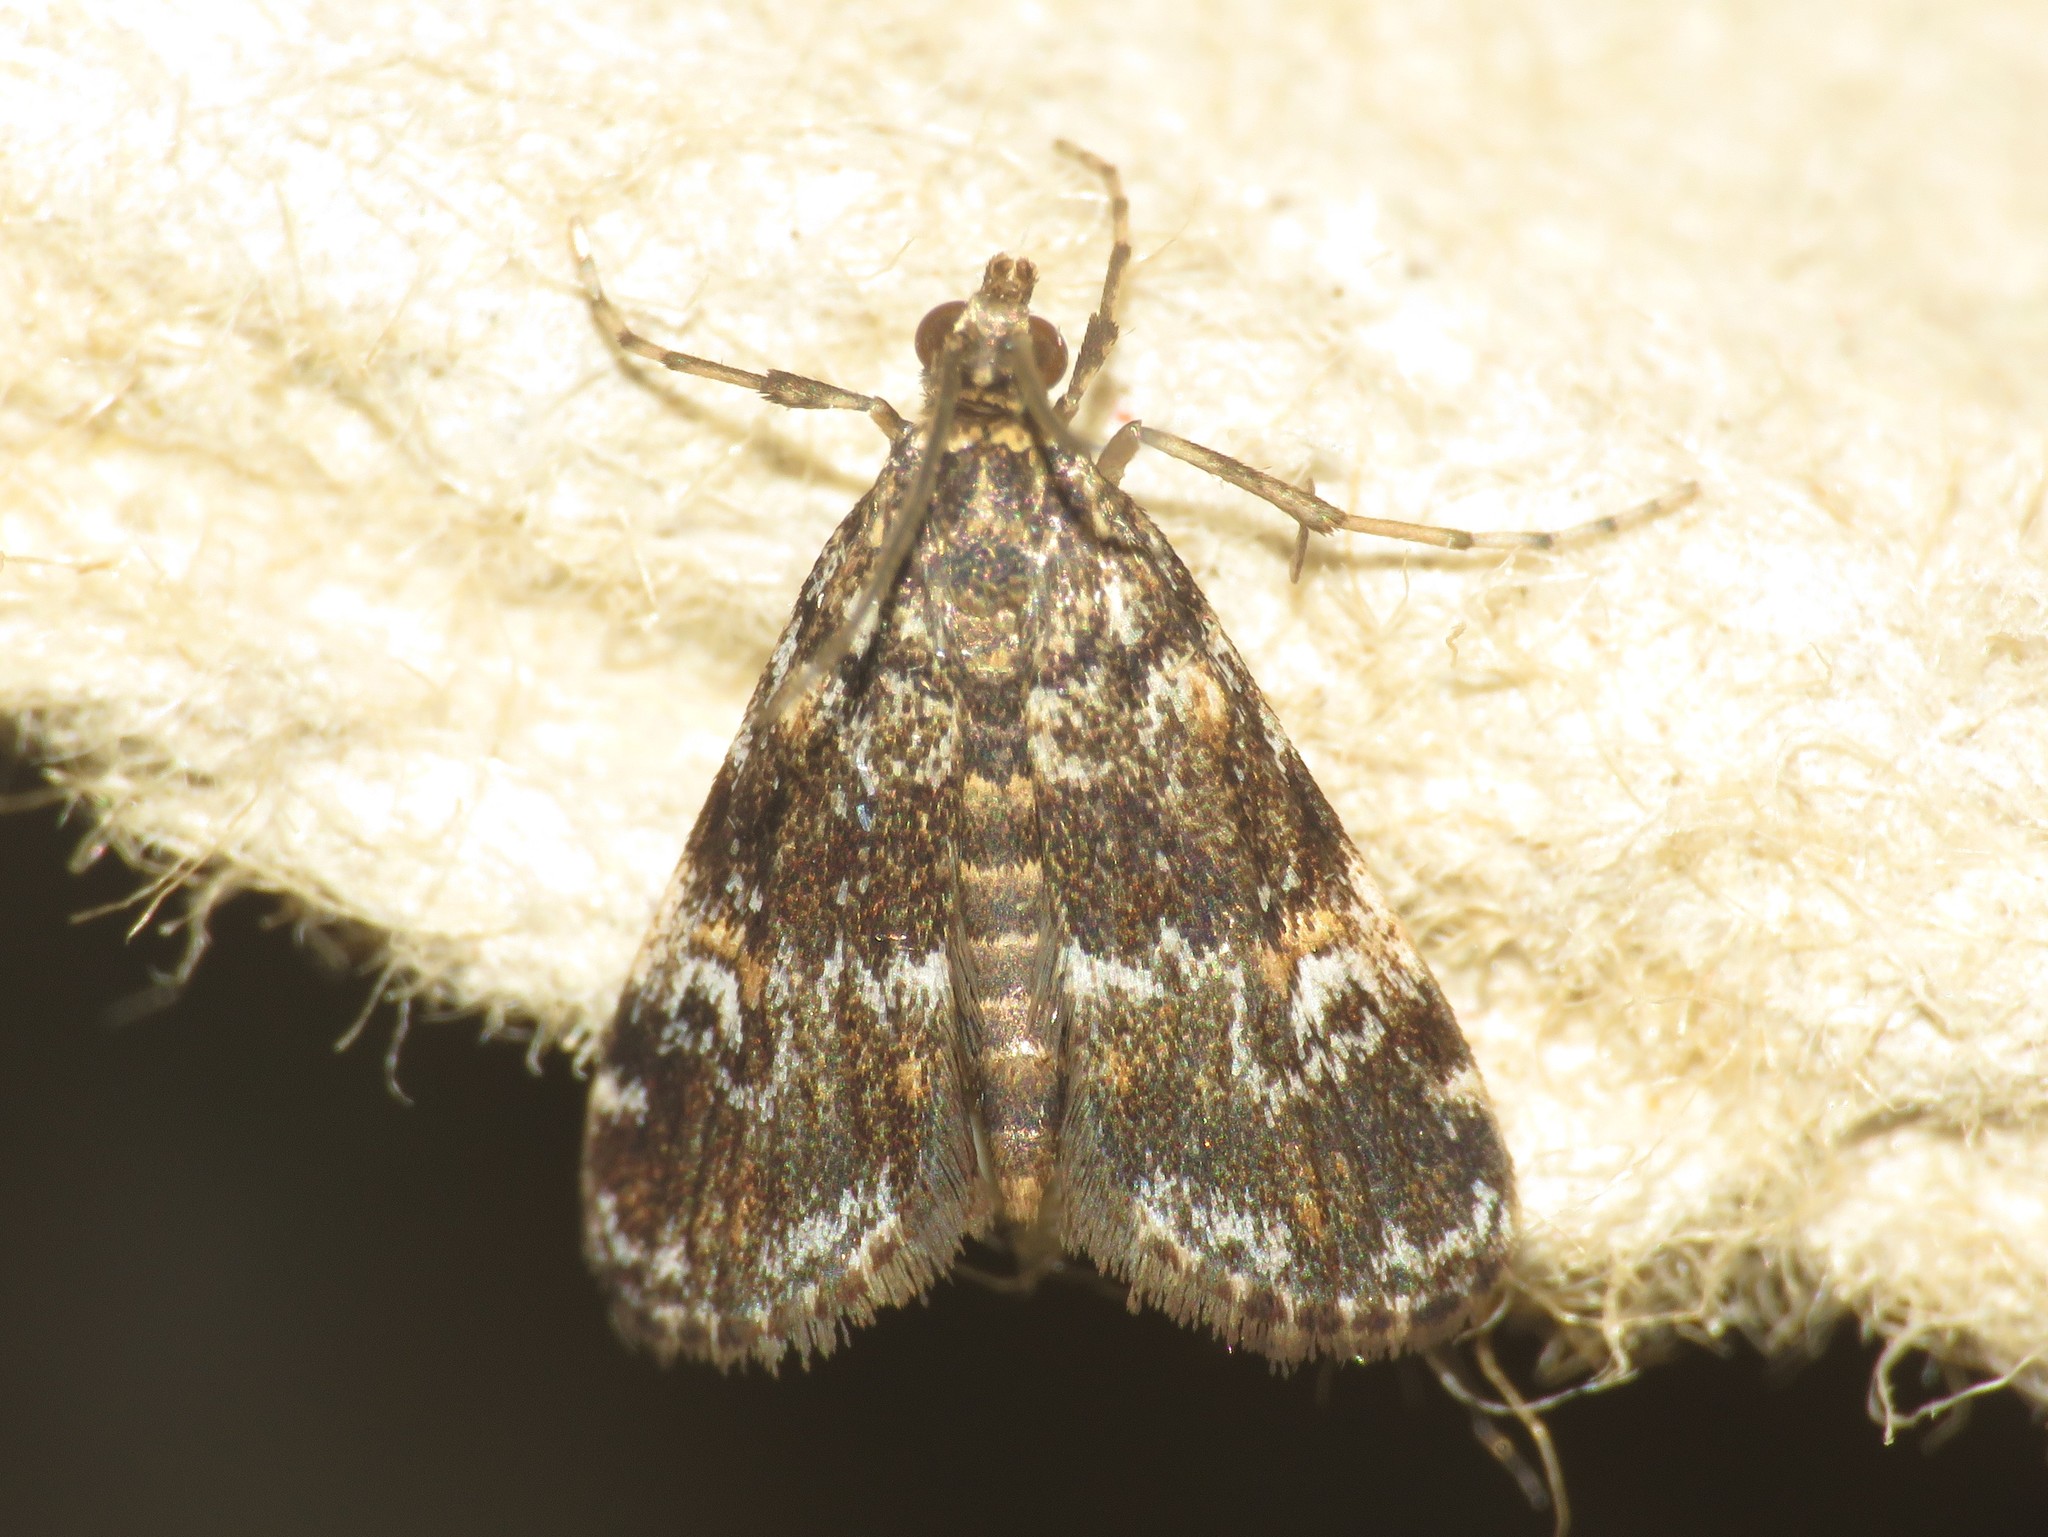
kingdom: Animalia
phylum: Arthropoda
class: Insecta
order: Lepidoptera
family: Crambidae
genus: Elophila
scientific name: Elophila obliteralis
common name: Waterlily leafcutter moth
